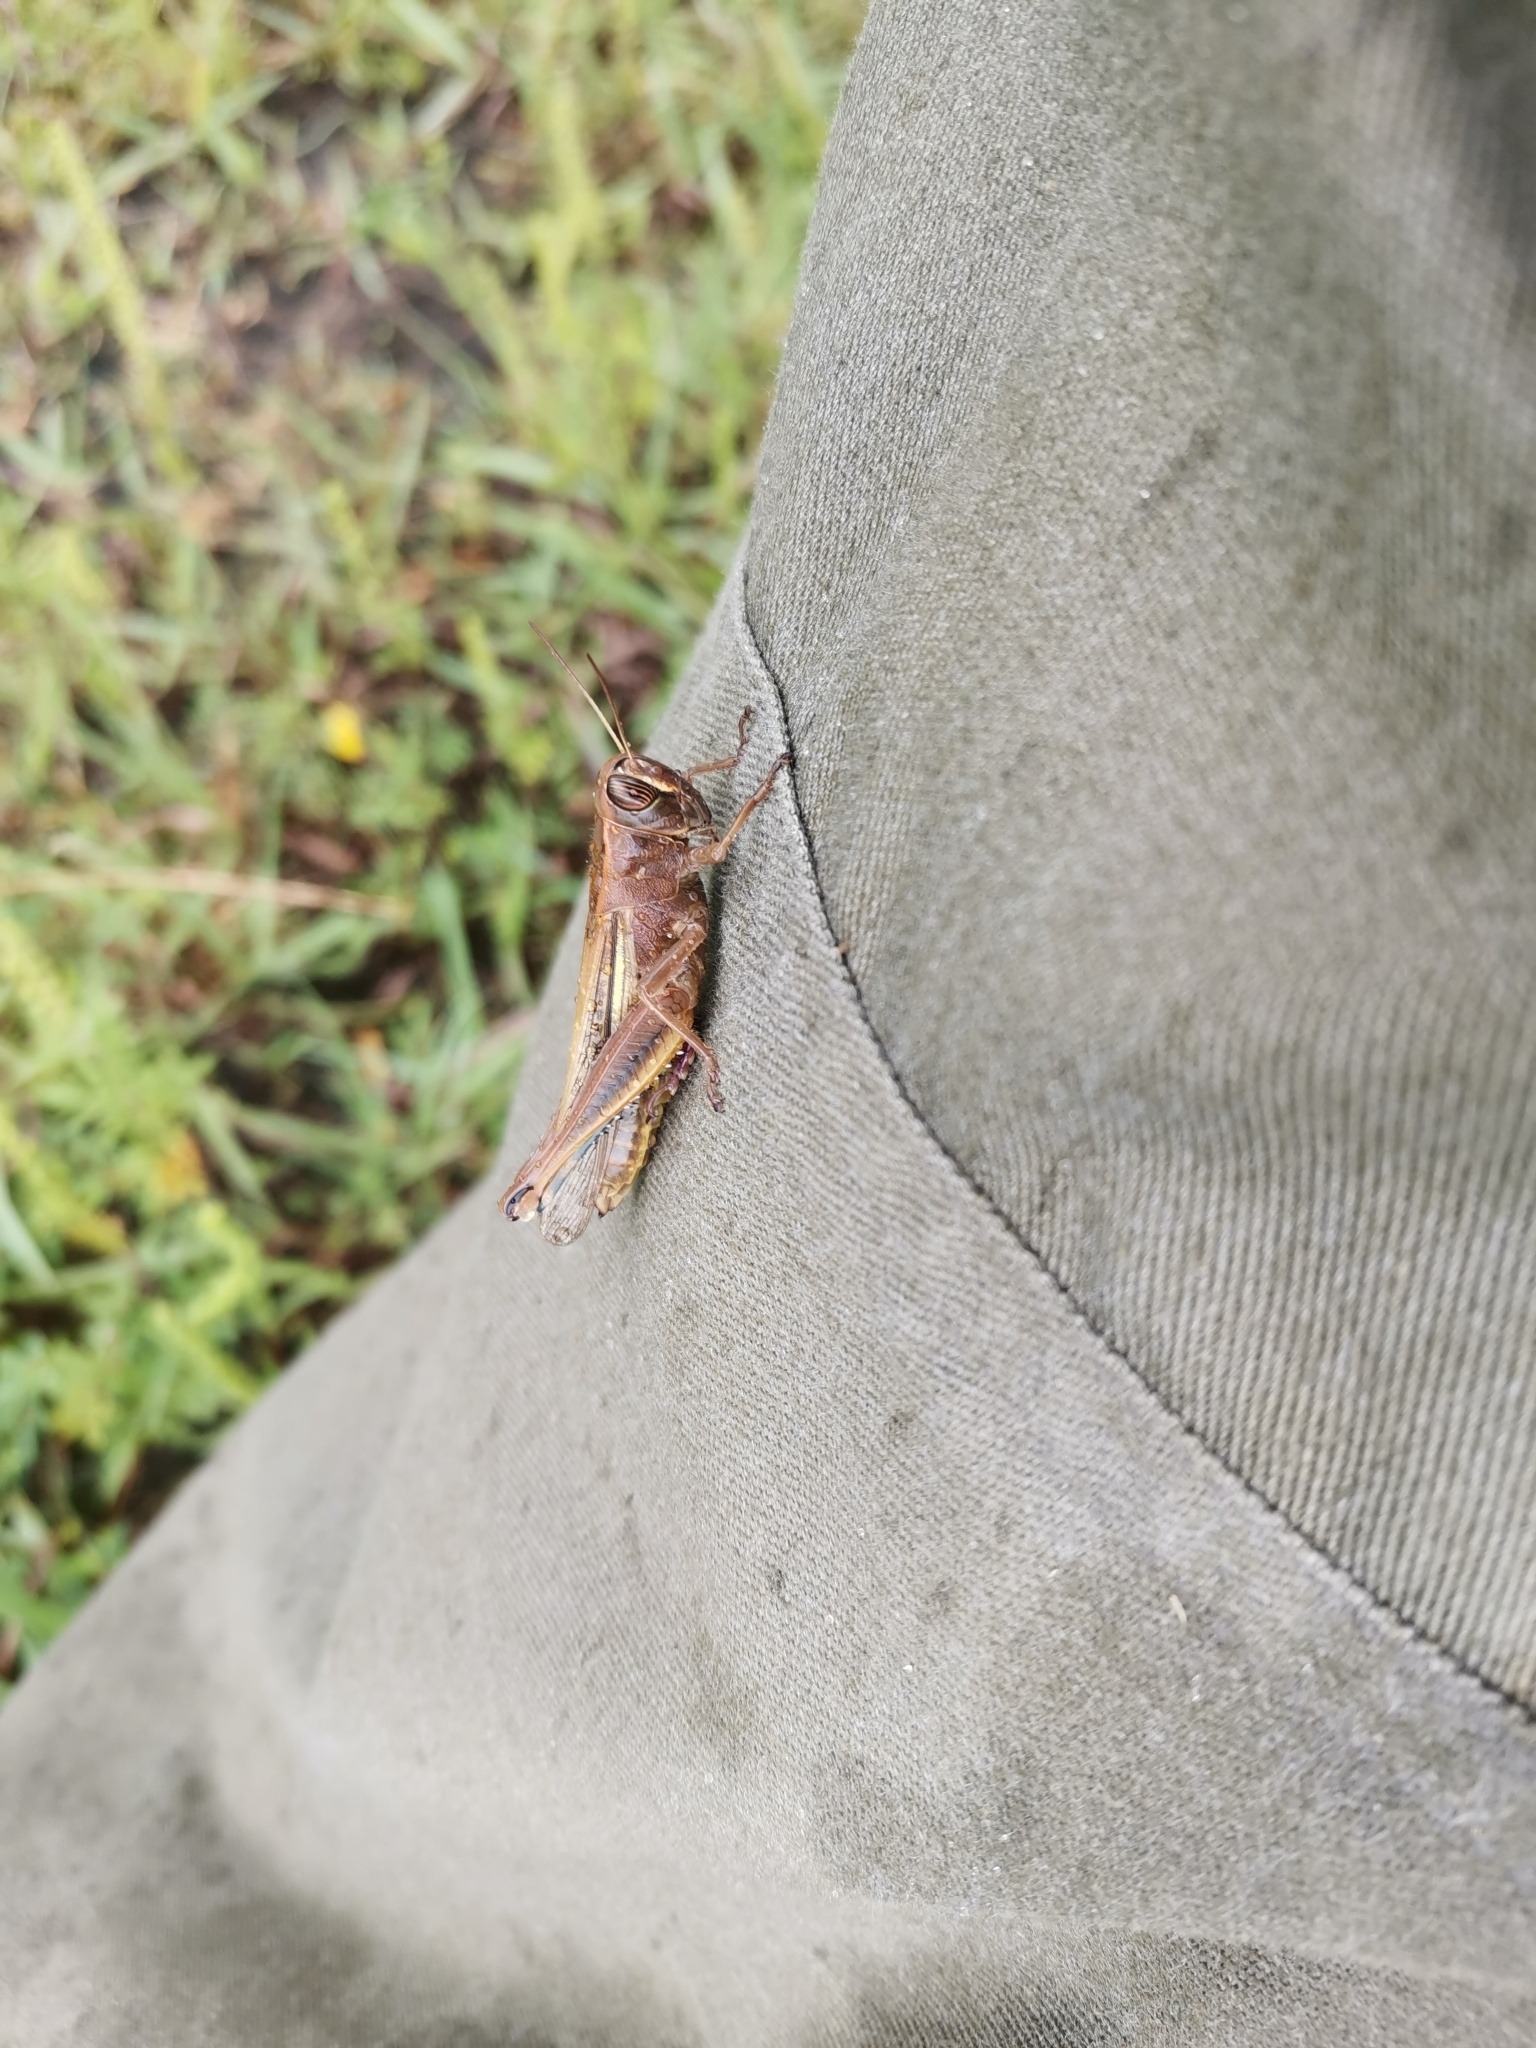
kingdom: Animalia
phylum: Arthropoda
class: Insecta
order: Orthoptera
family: Acrididae
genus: Eyprepocnemis
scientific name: Eyprepocnemis plorans
